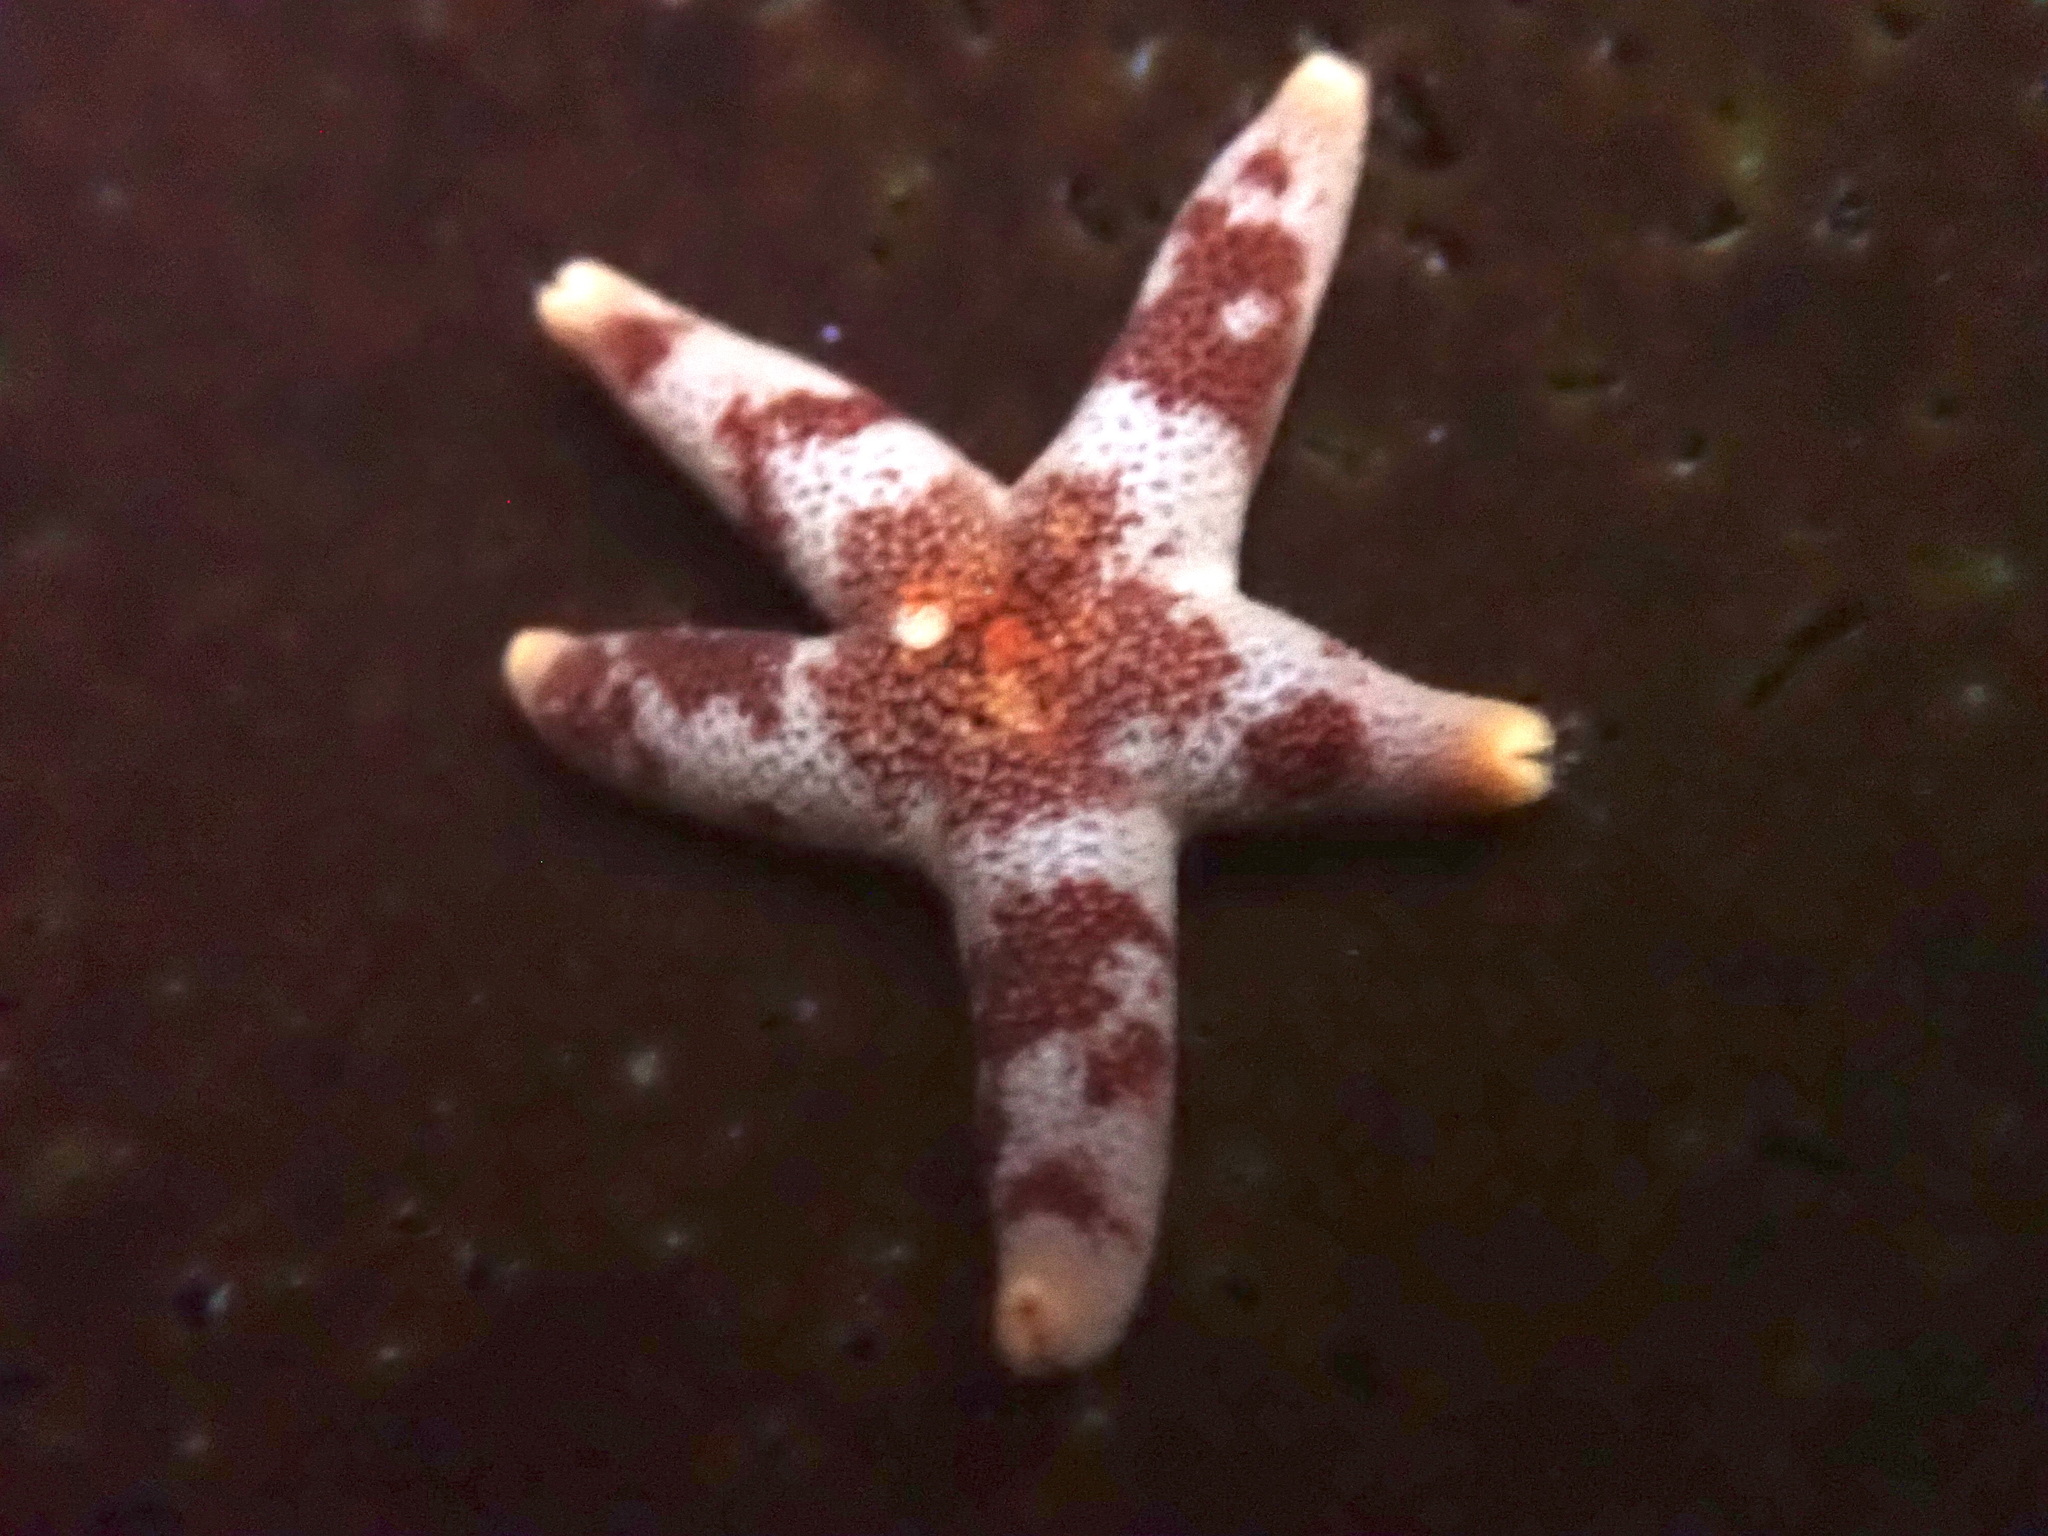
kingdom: Animalia
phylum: Echinodermata
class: Asteroidea
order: Spinulosida
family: Echinasteridae
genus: Henricia
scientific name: Henricia pumila
